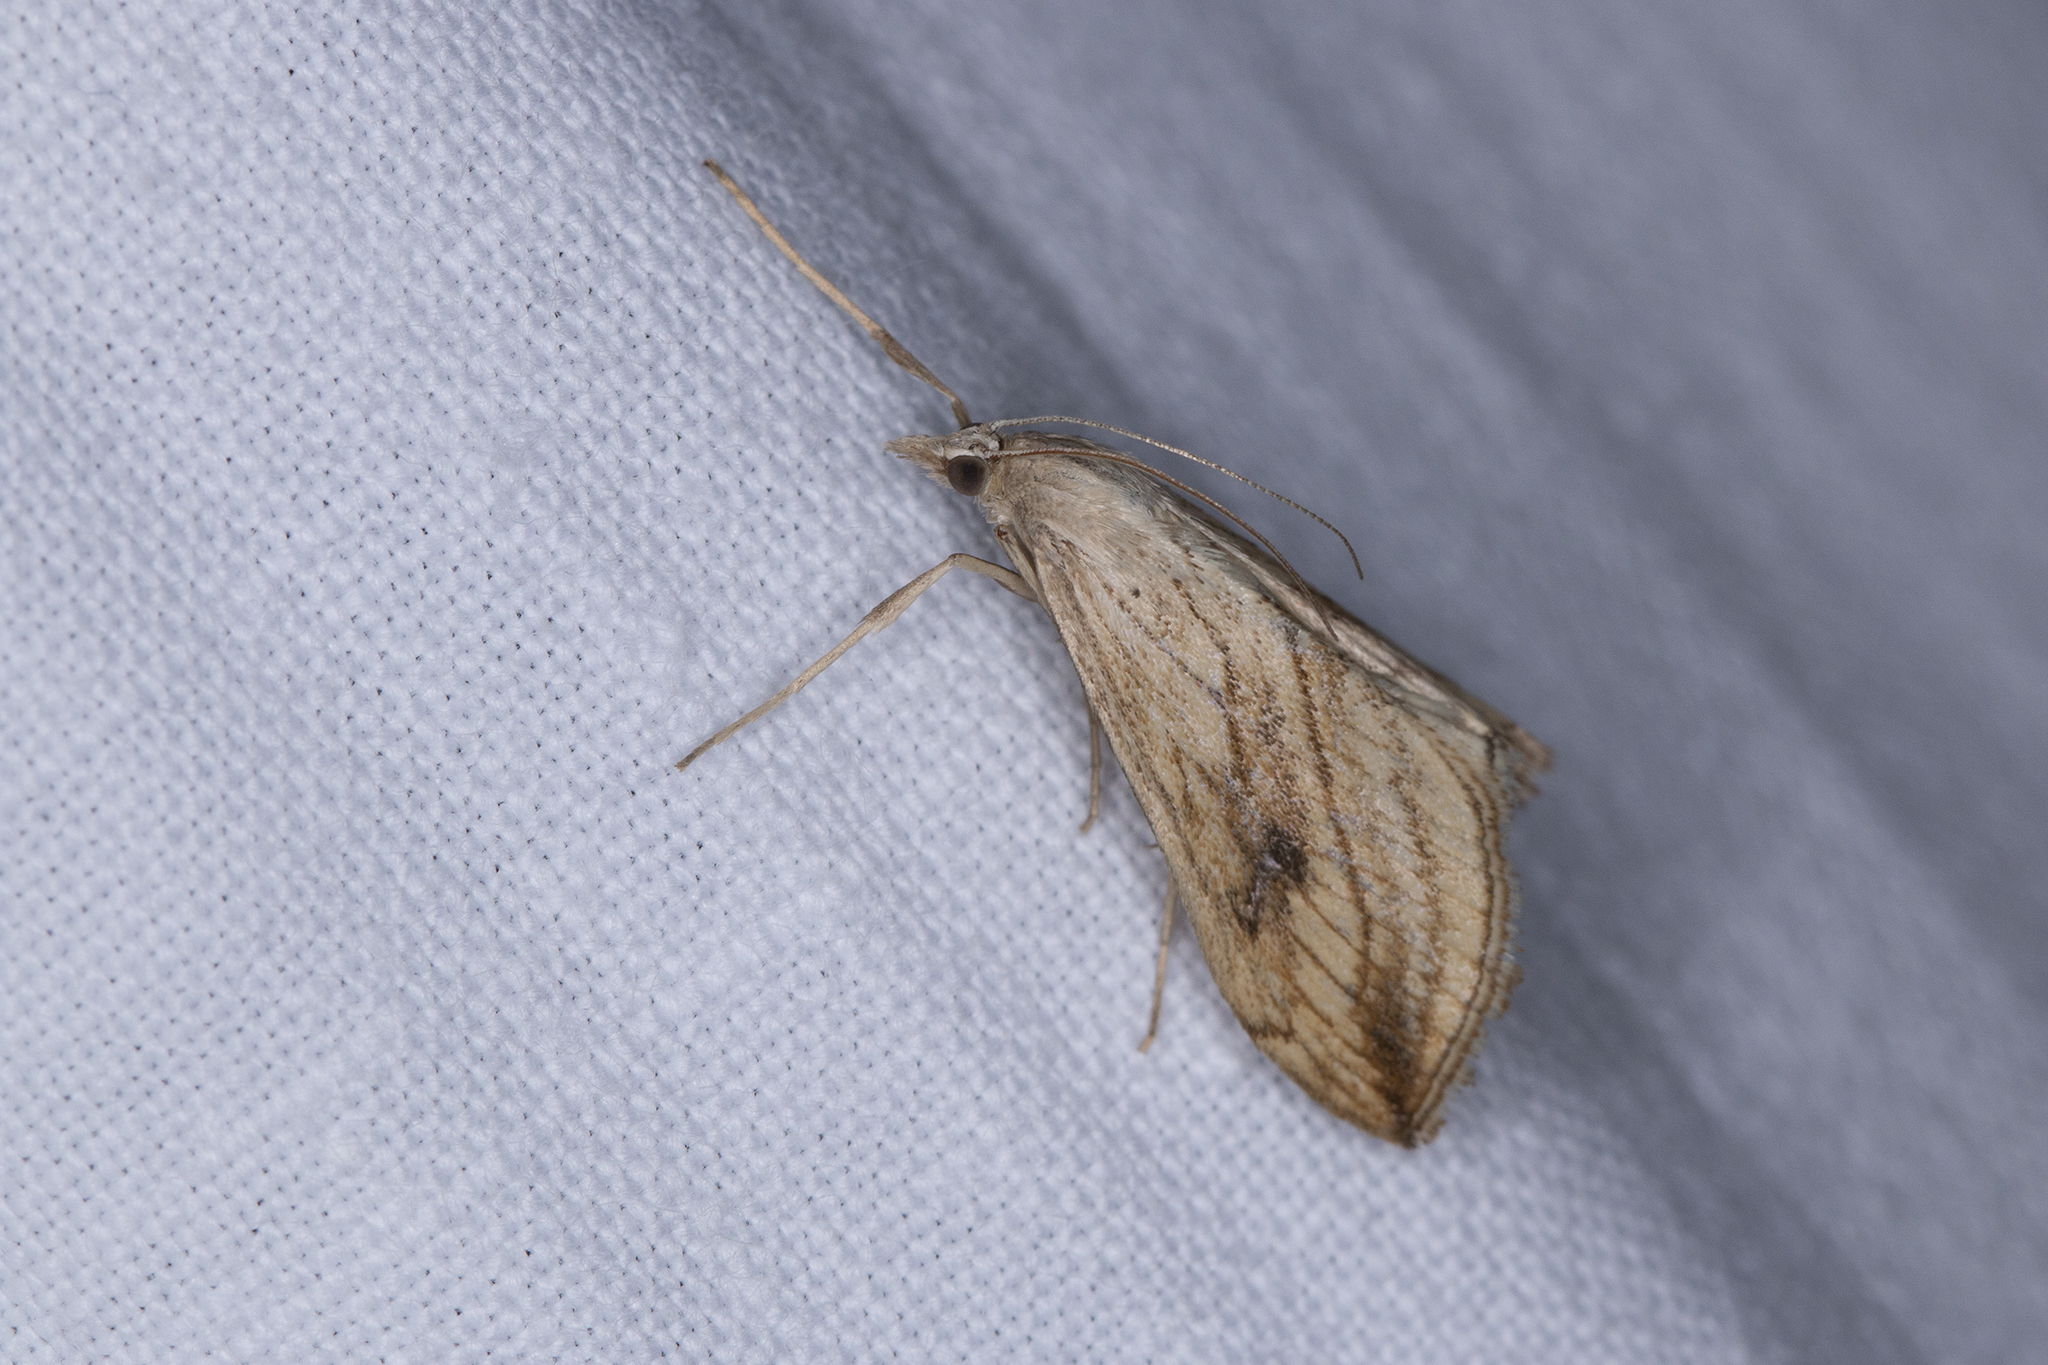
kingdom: Animalia
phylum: Arthropoda
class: Insecta
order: Lepidoptera
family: Crambidae
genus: Evergestis
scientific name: Evergestis forficalis
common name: Garden pebble
